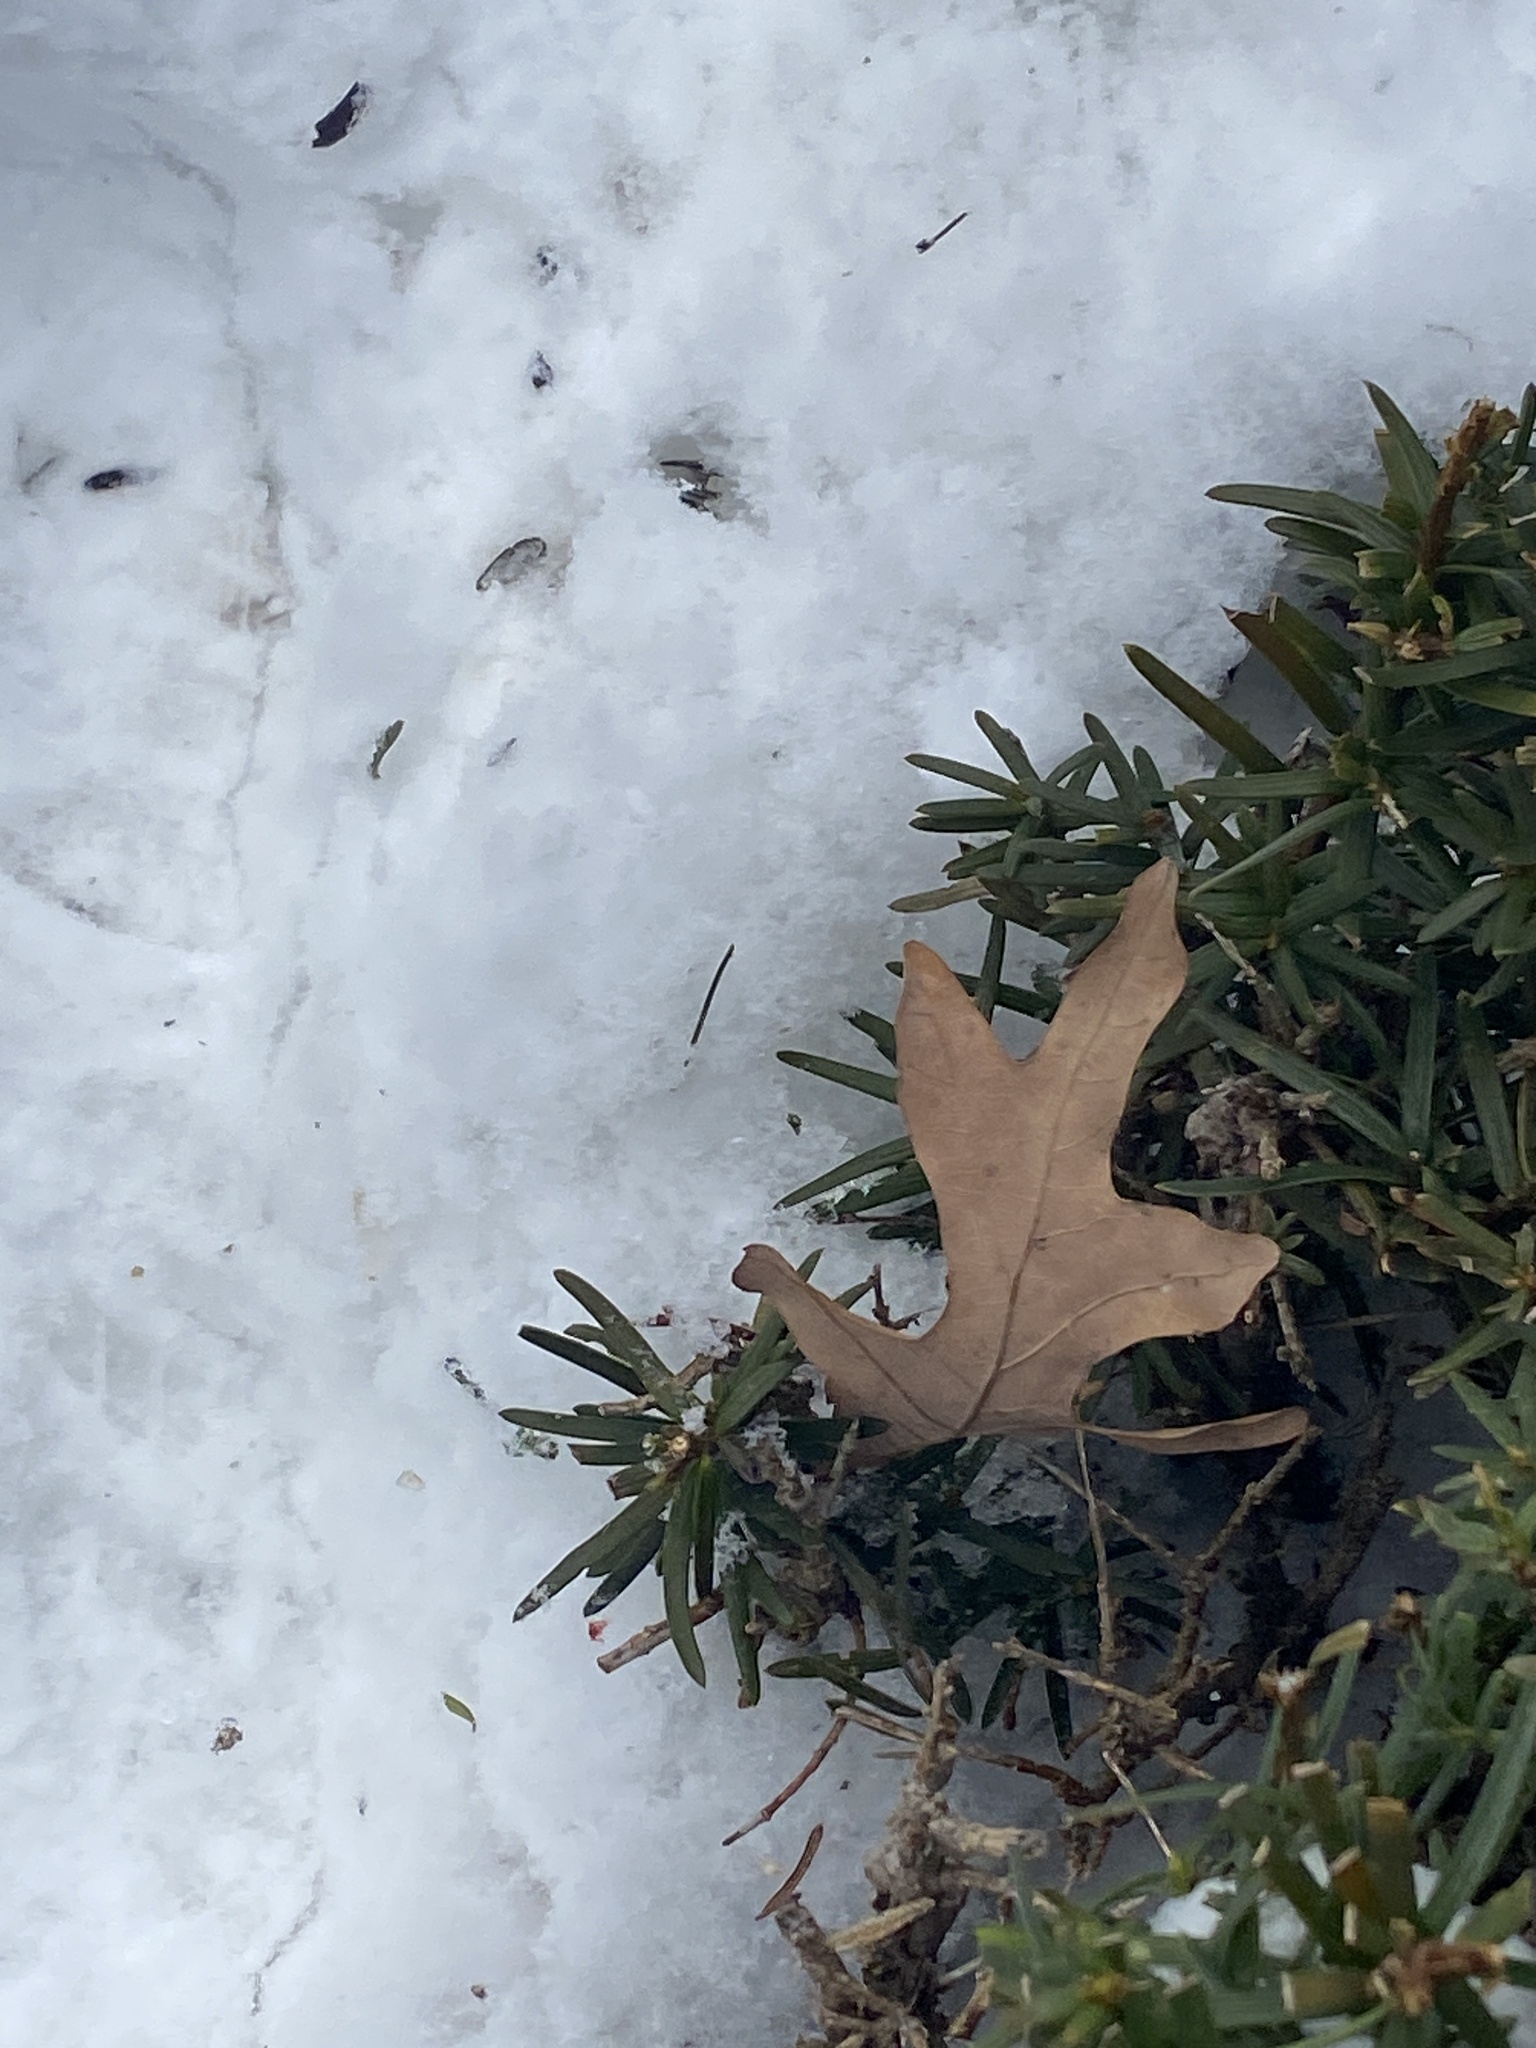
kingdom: Plantae
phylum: Tracheophyta
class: Magnoliopsida
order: Fagales
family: Fagaceae
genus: Quercus
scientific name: Quercus alba
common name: White oak
